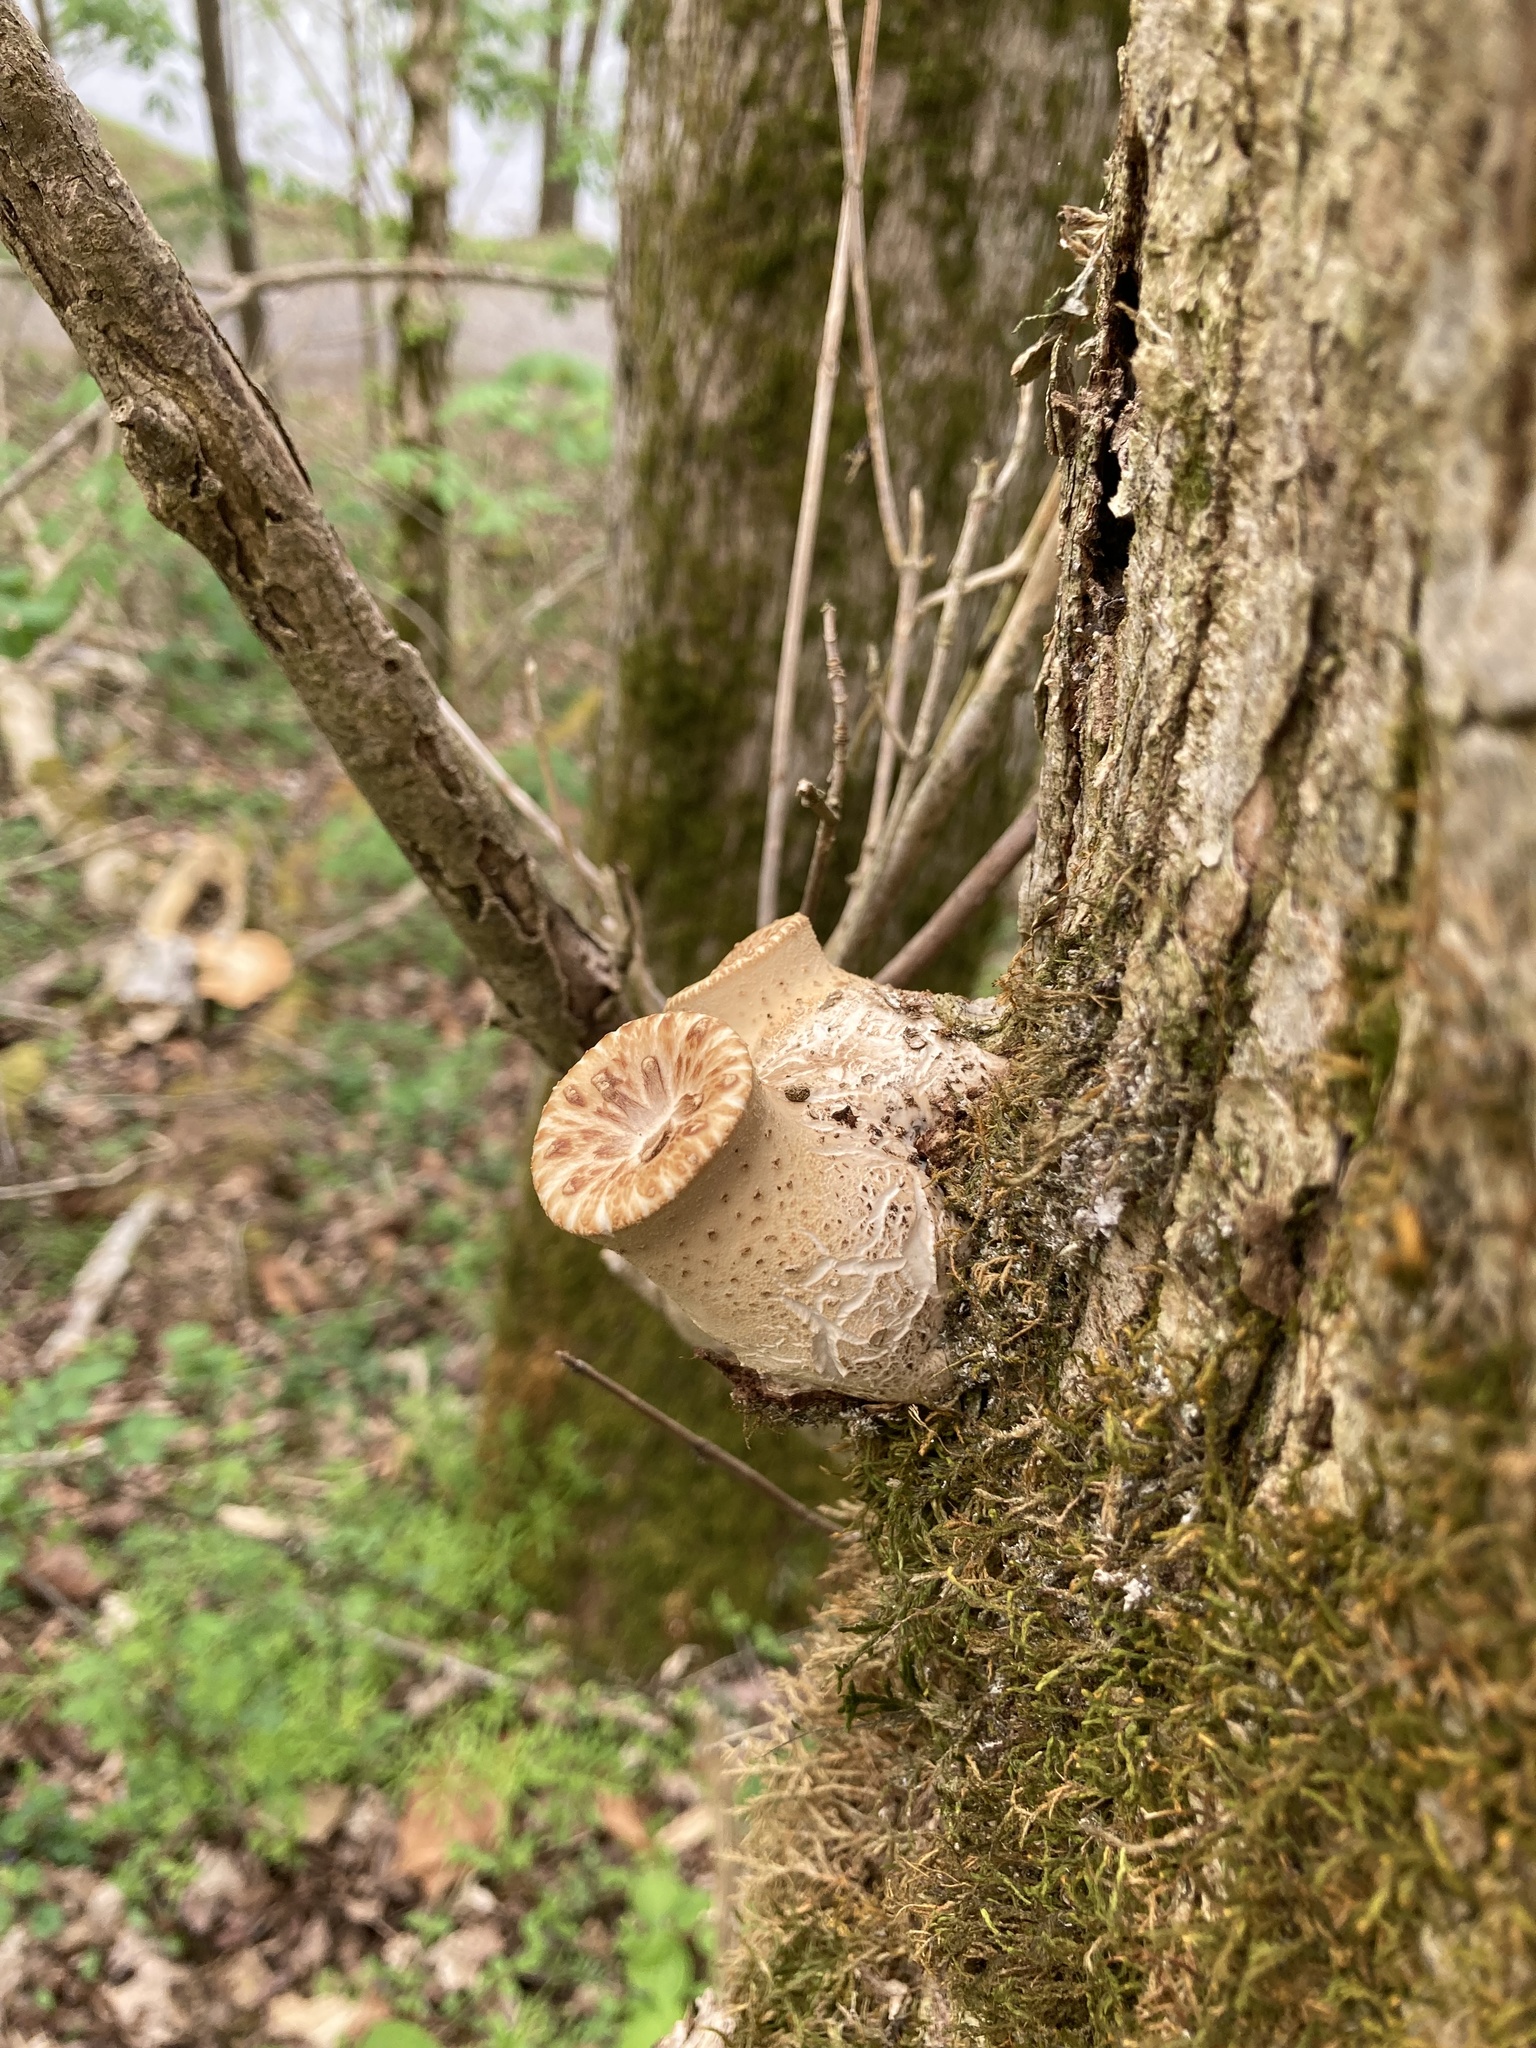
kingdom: Fungi
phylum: Basidiomycota
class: Agaricomycetes
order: Polyporales
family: Polyporaceae
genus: Cerioporus
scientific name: Cerioporus squamosus
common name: Dryad's saddle
